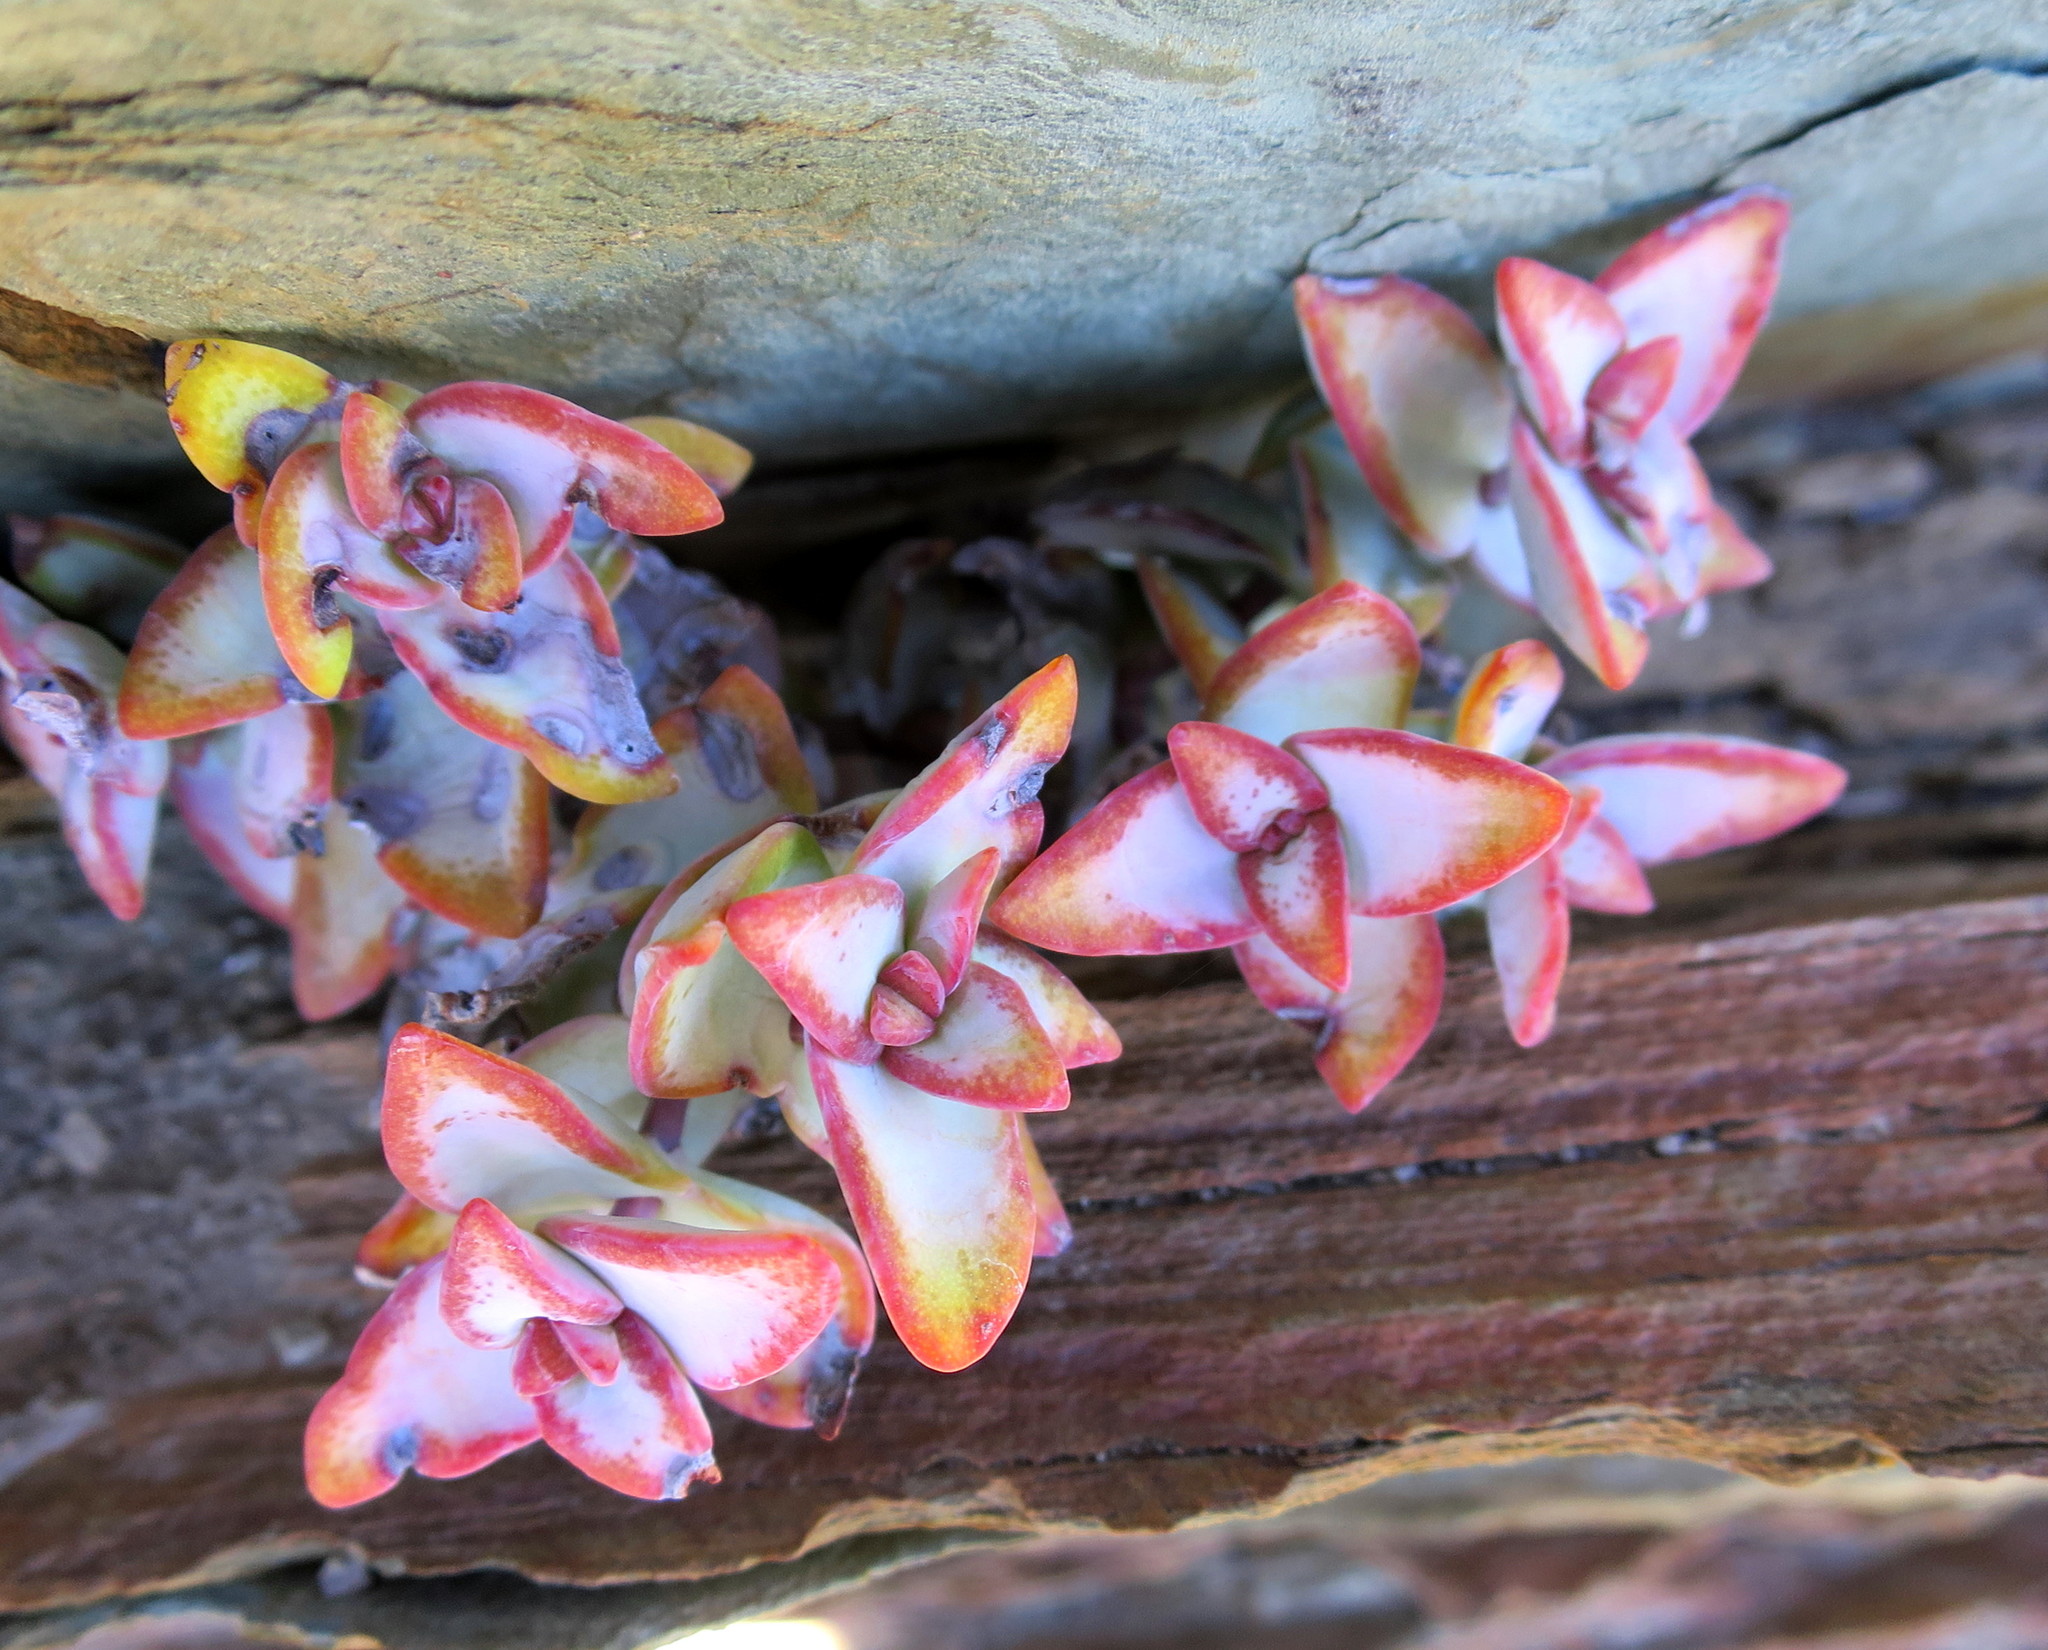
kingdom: Plantae
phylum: Tracheophyta
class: Magnoliopsida
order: Saxifragales
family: Crassulaceae
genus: Crassula
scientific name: Crassula rupestris
